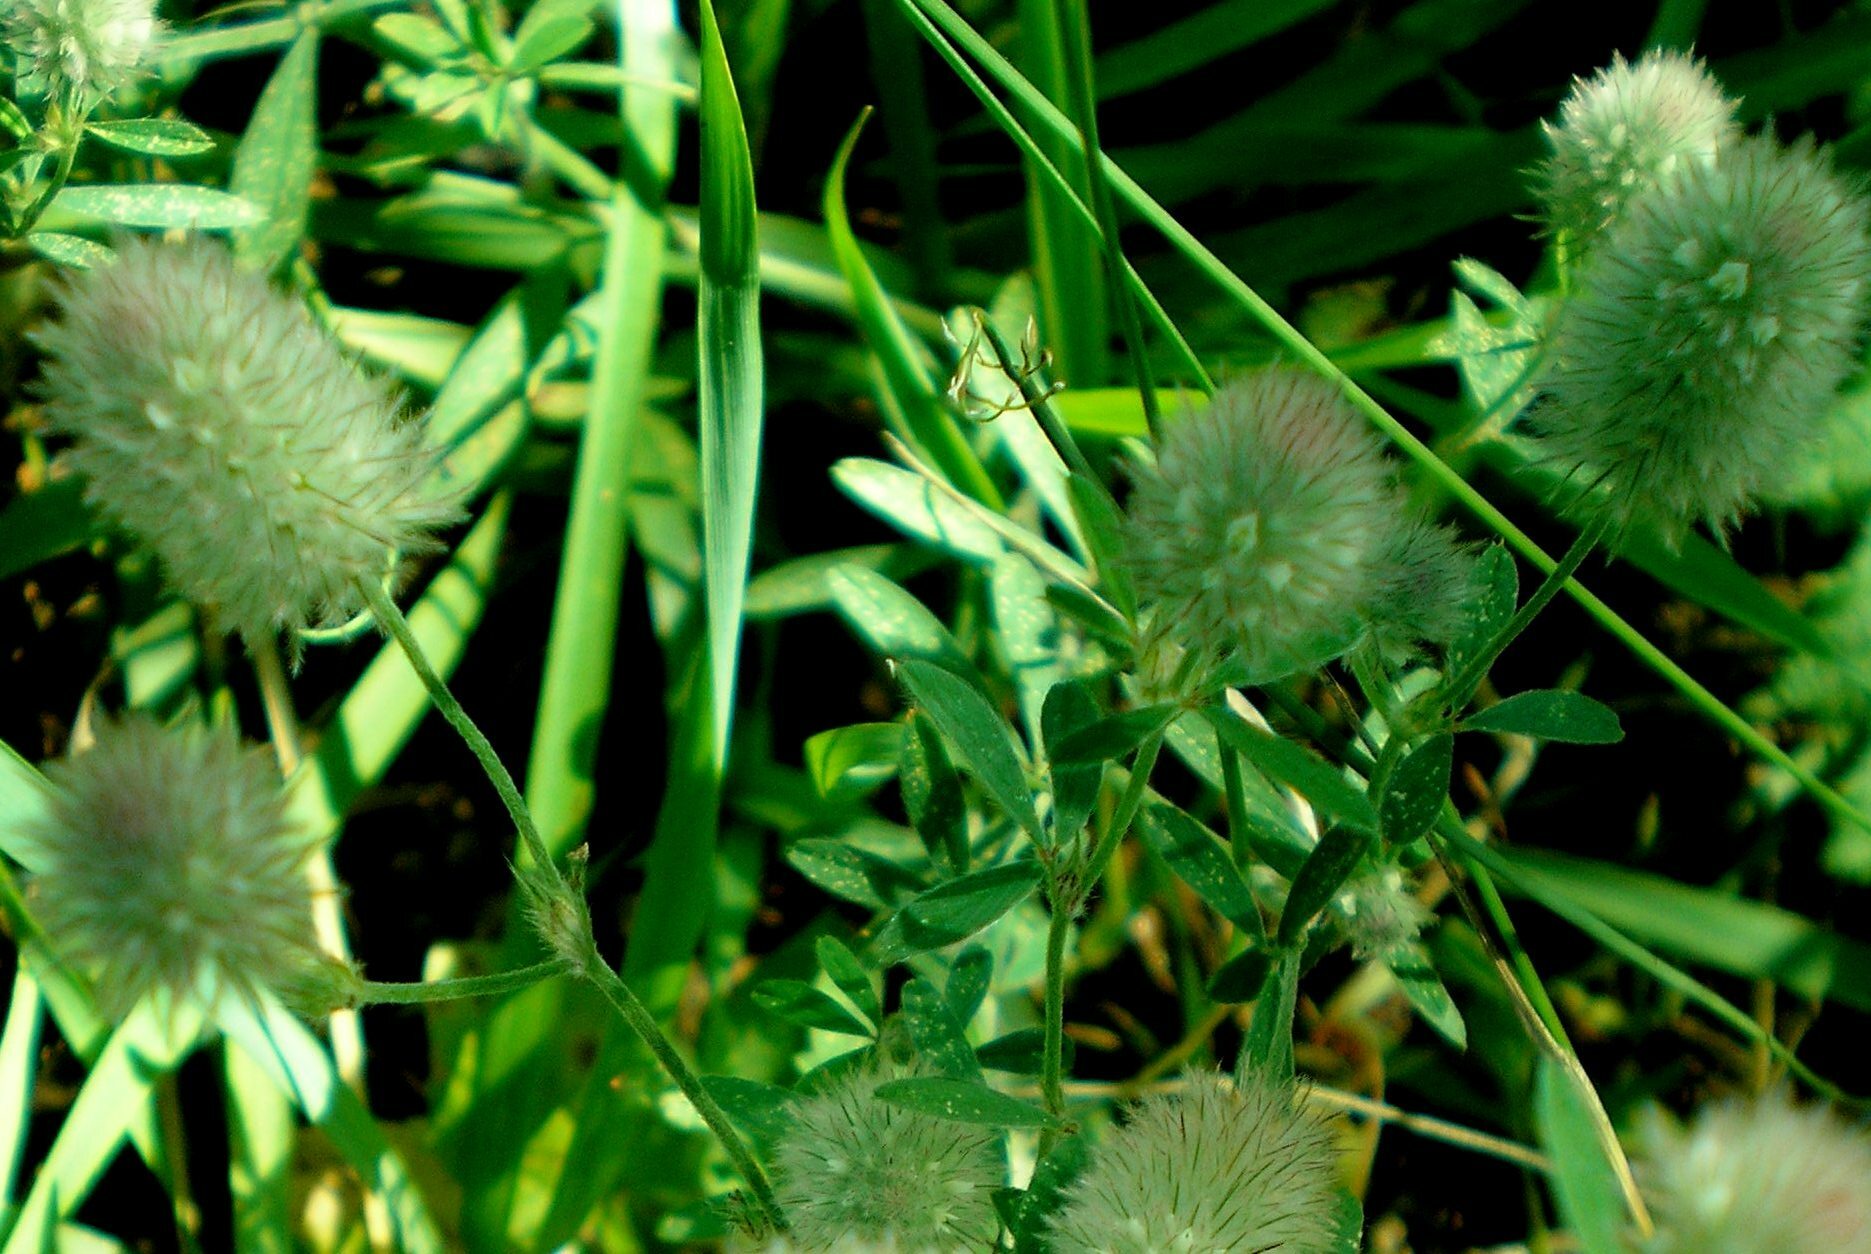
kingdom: Plantae
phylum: Tracheophyta
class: Magnoliopsida
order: Fabales
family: Fabaceae
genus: Trifolium
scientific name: Trifolium arvense
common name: Hare's-foot clover
